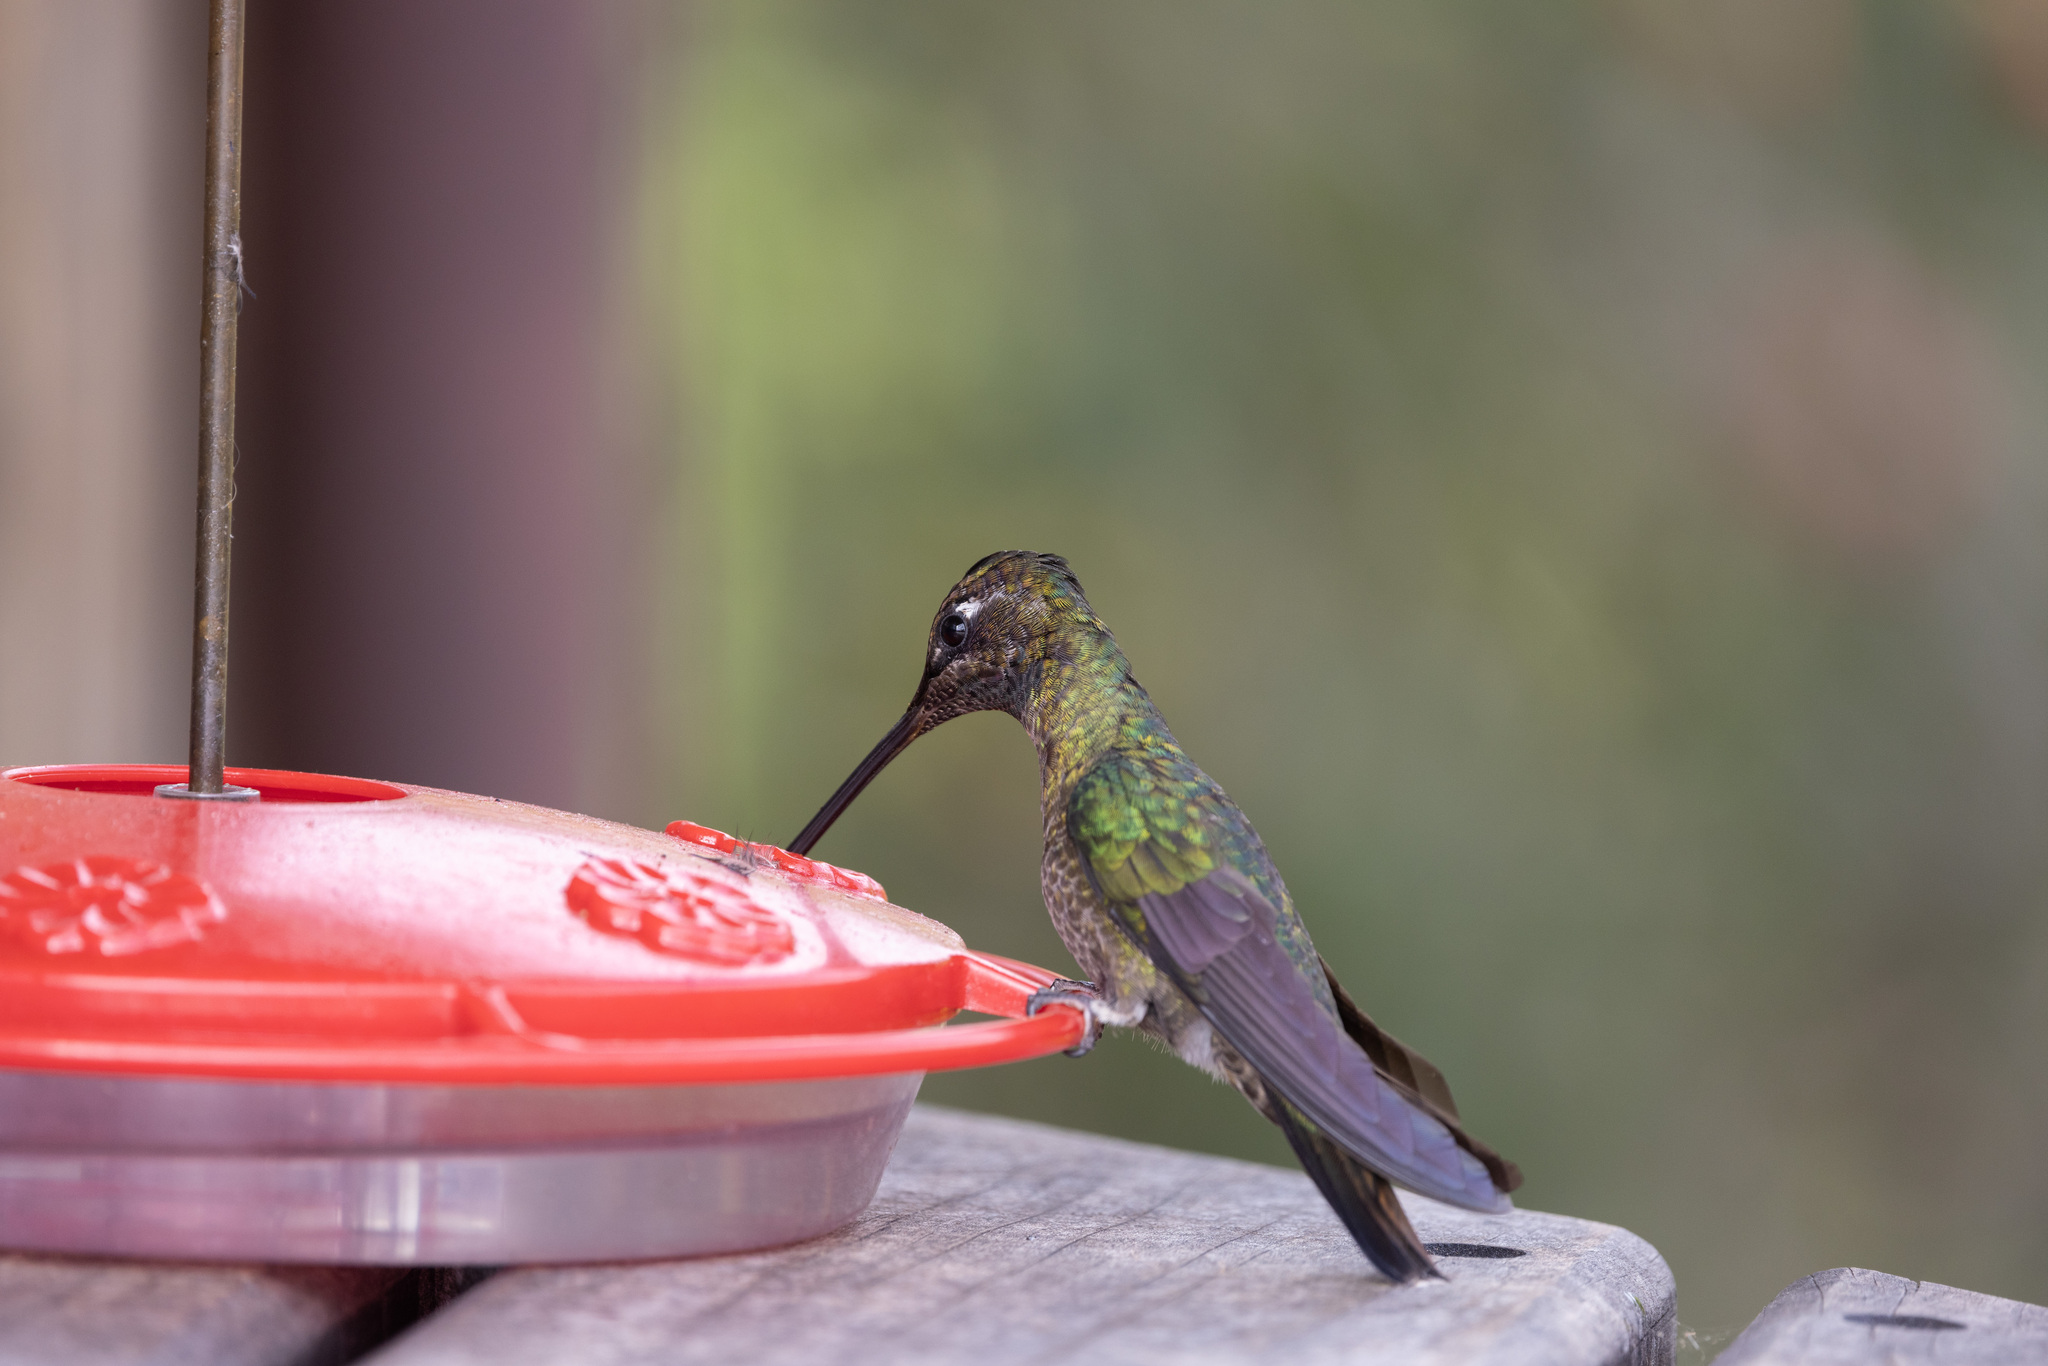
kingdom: Animalia
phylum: Chordata
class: Aves
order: Apodiformes
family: Trochilidae
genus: Eugenes
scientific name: Eugenes spectabilis
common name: Talamanca hummingbird
